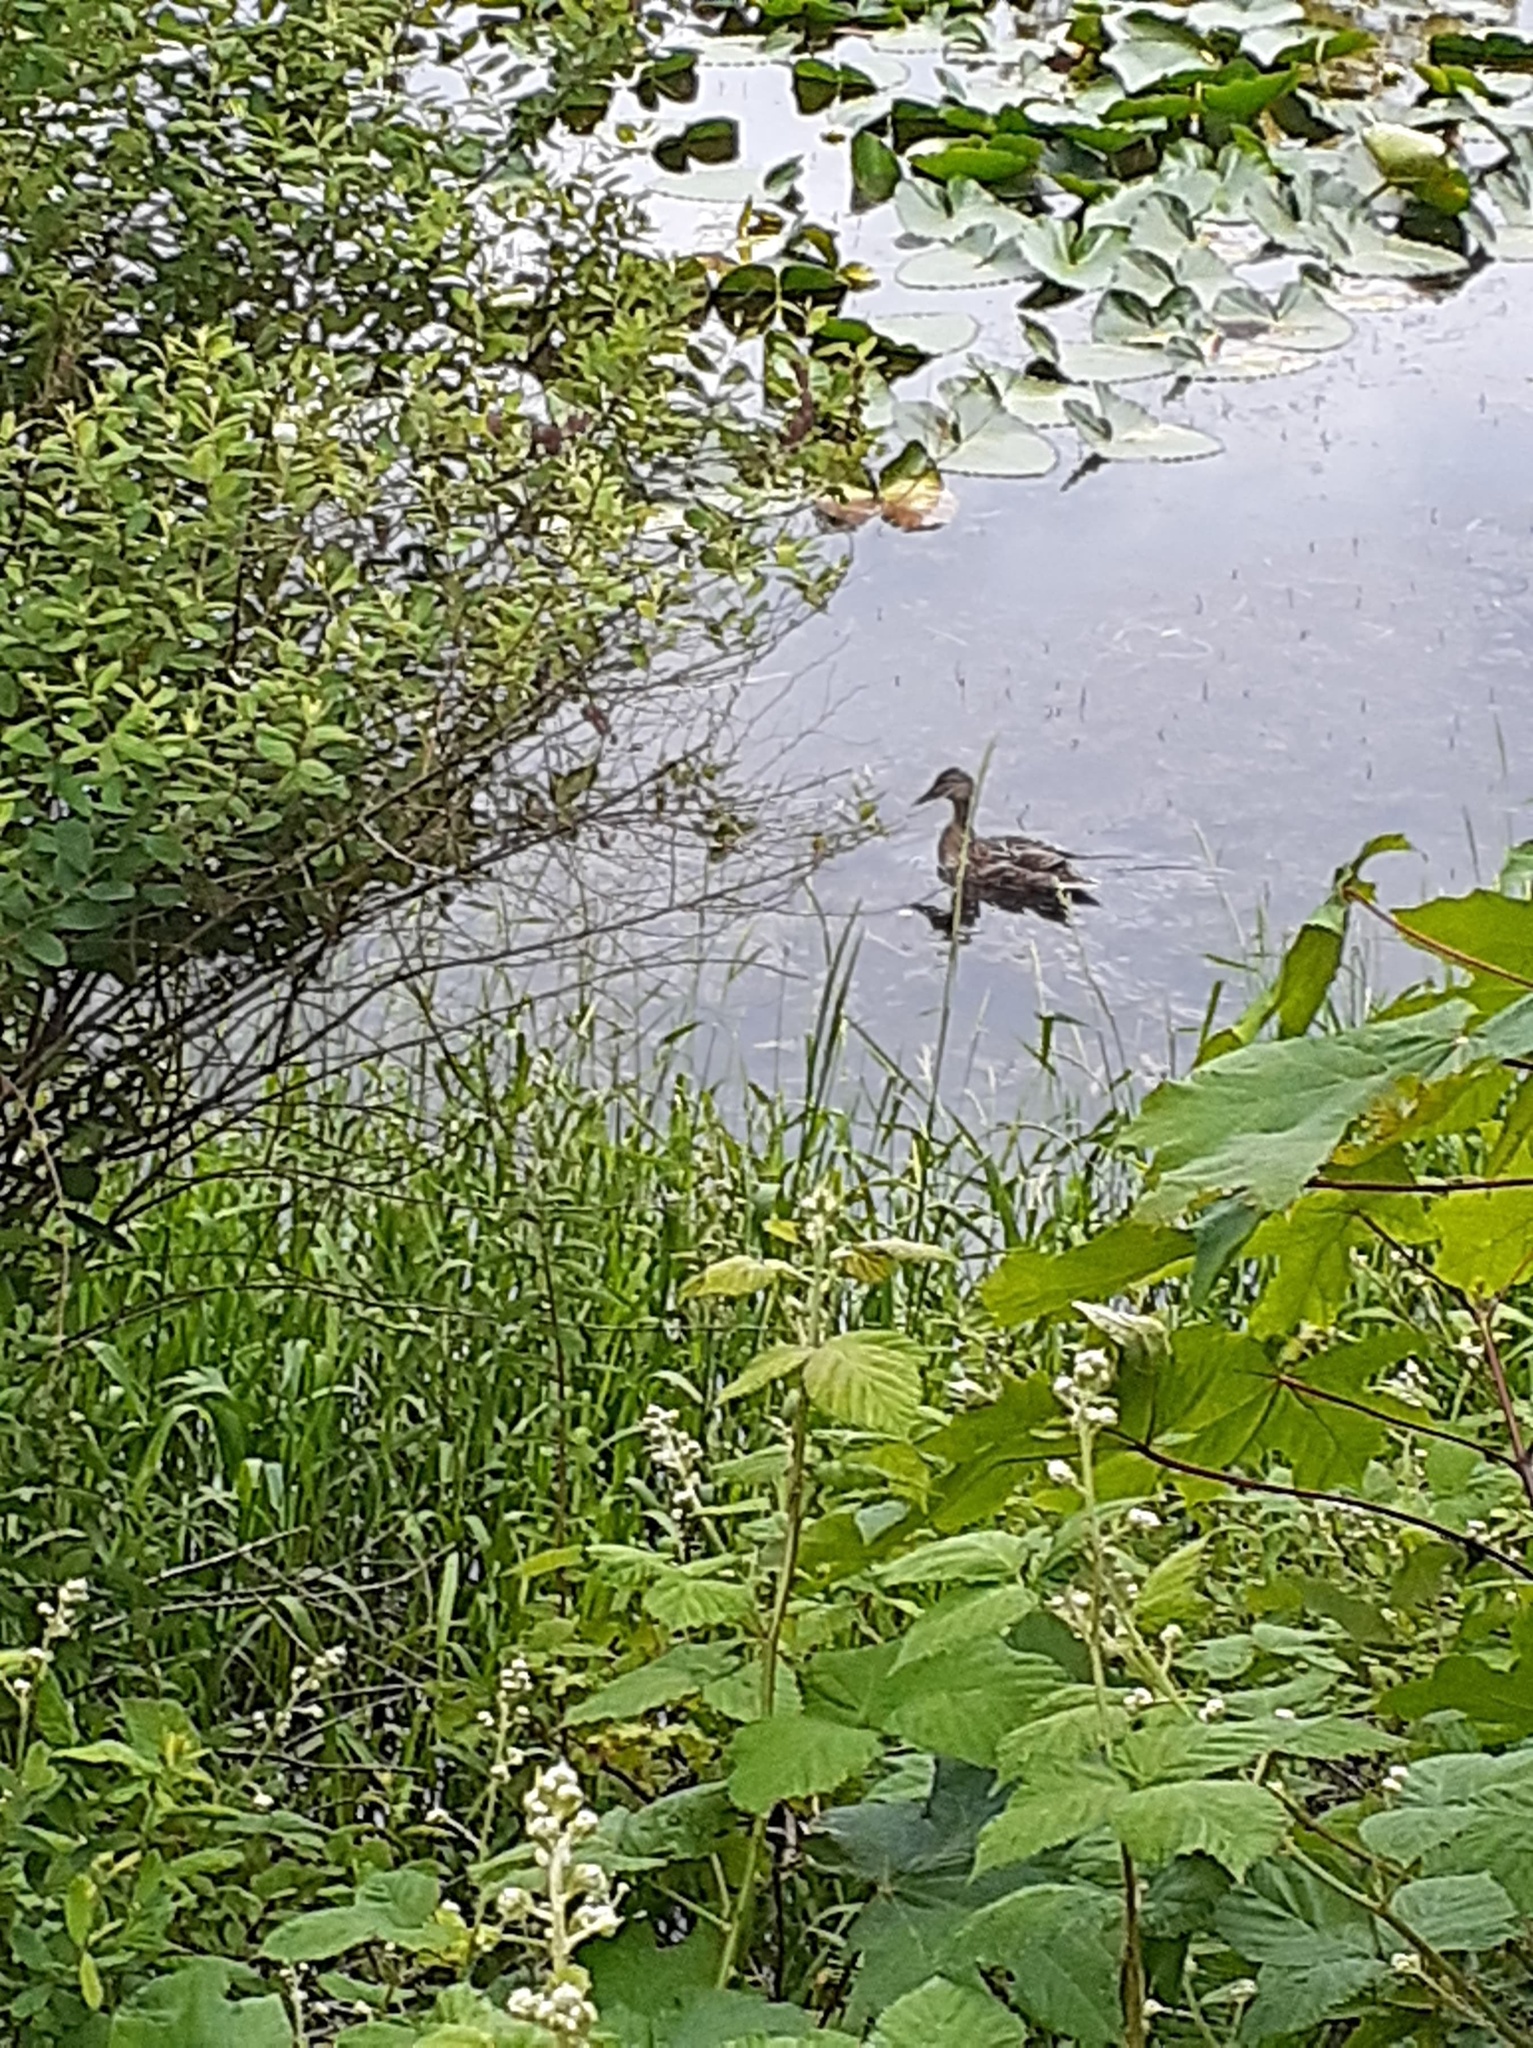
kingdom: Animalia
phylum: Chordata
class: Aves
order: Anseriformes
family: Anatidae
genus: Anas
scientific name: Anas platyrhynchos
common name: Mallard
